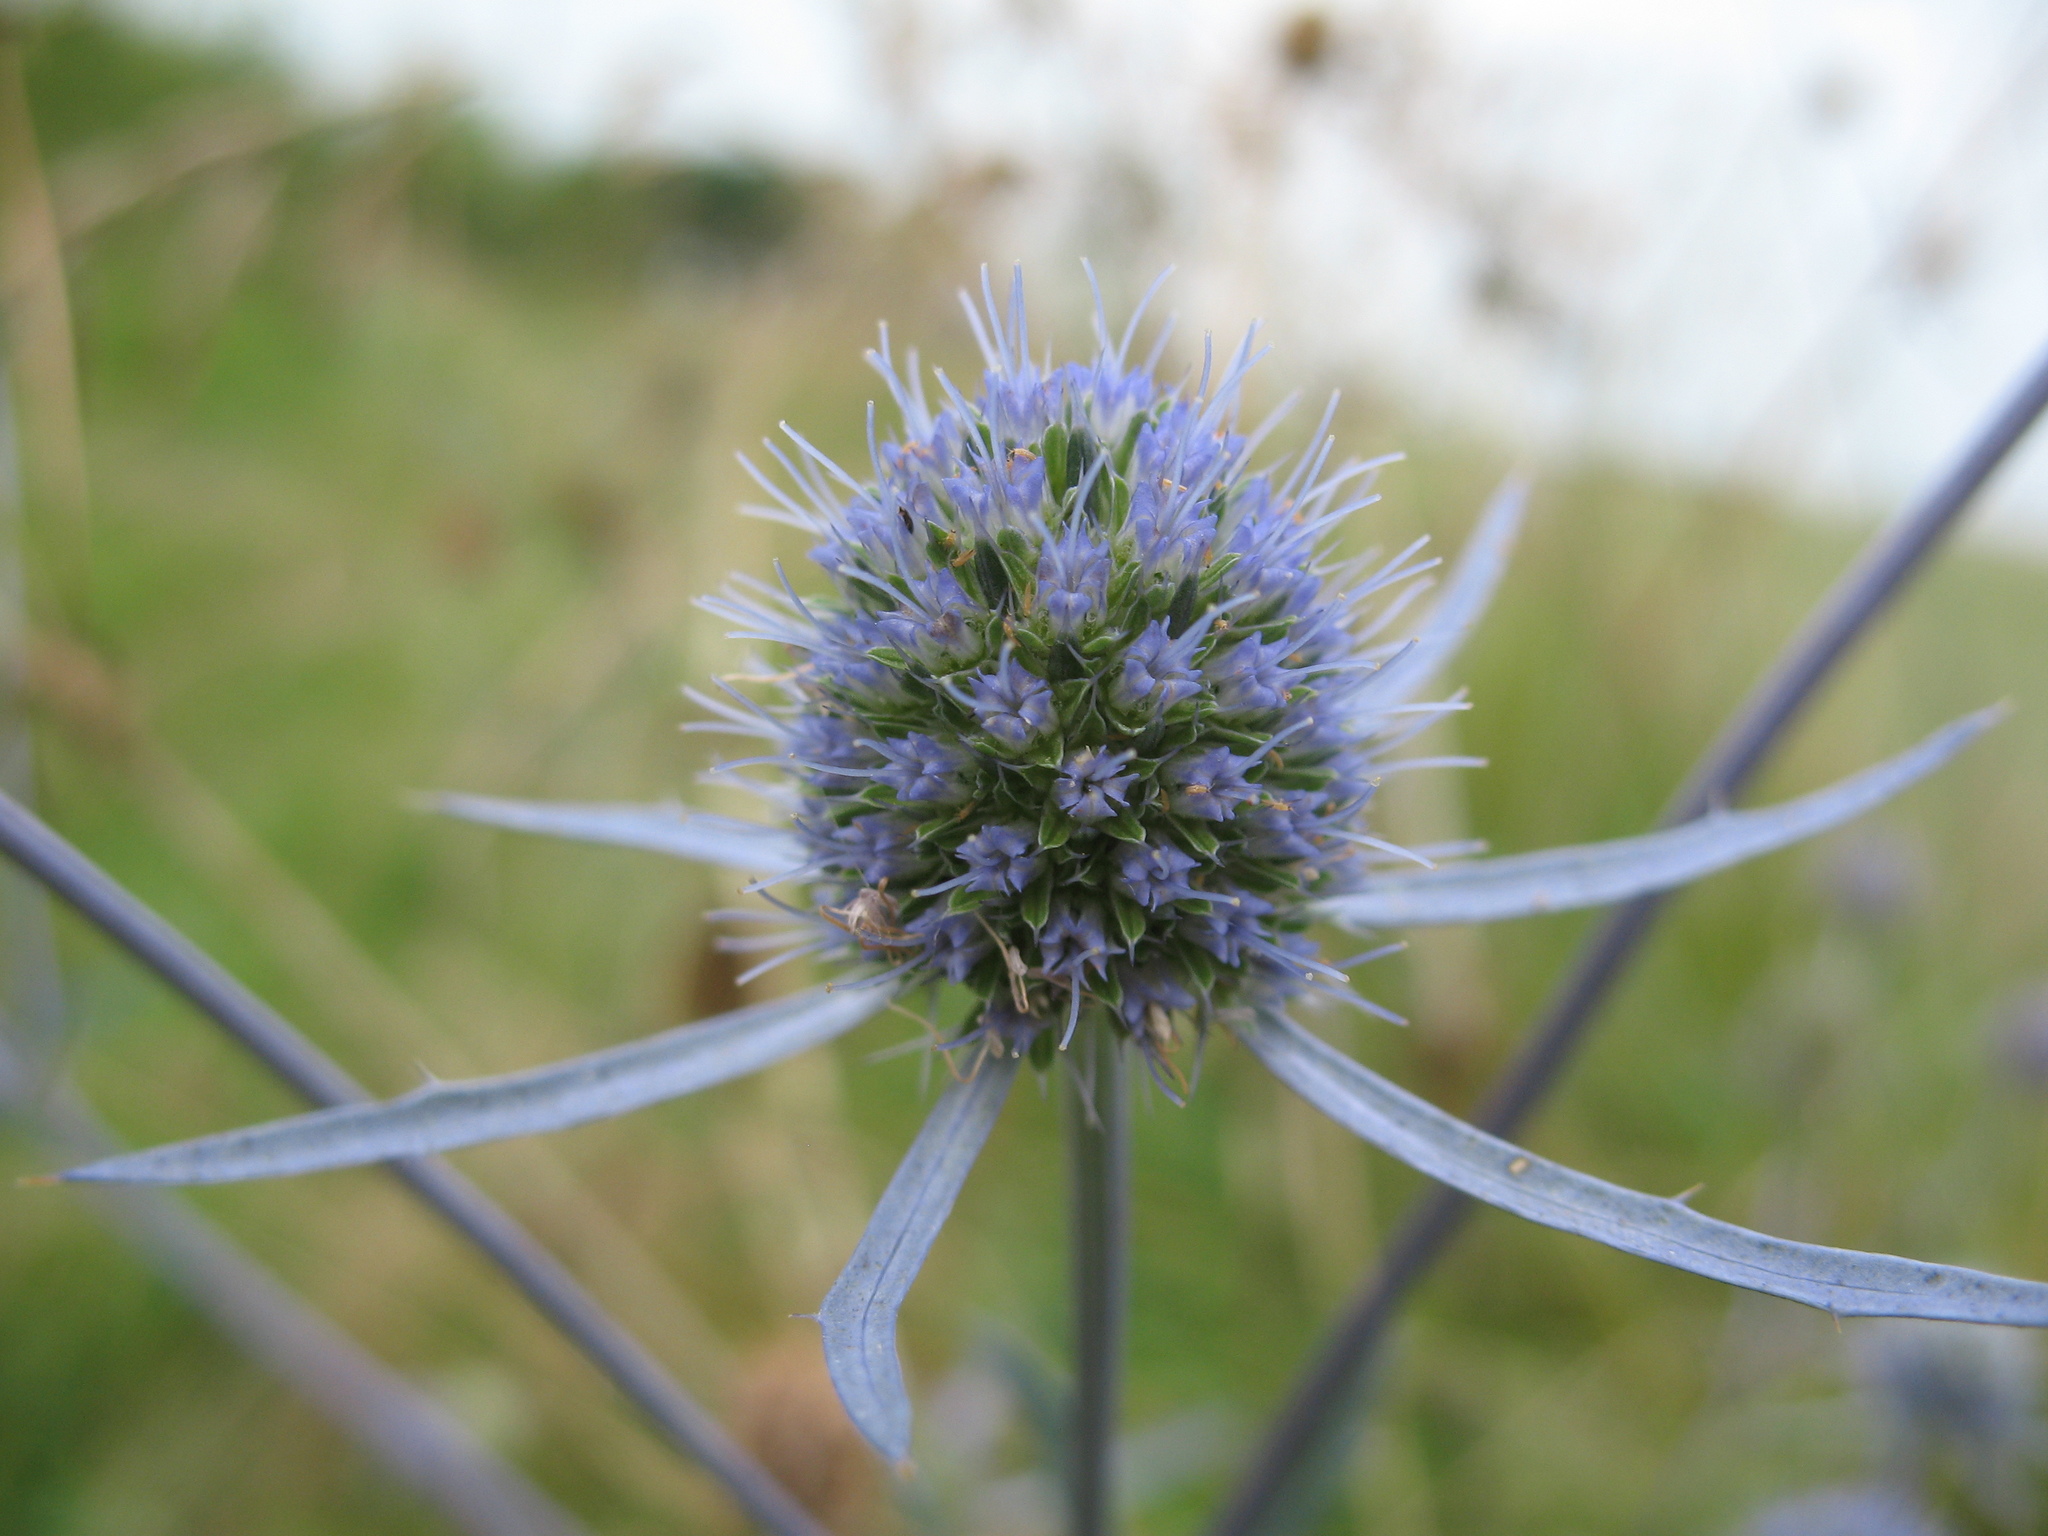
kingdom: Plantae
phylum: Tracheophyta
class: Magnoliopsida
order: Apiales
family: Apiaceae
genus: Eryngium
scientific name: Eryngium planum
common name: Blue eryngo
